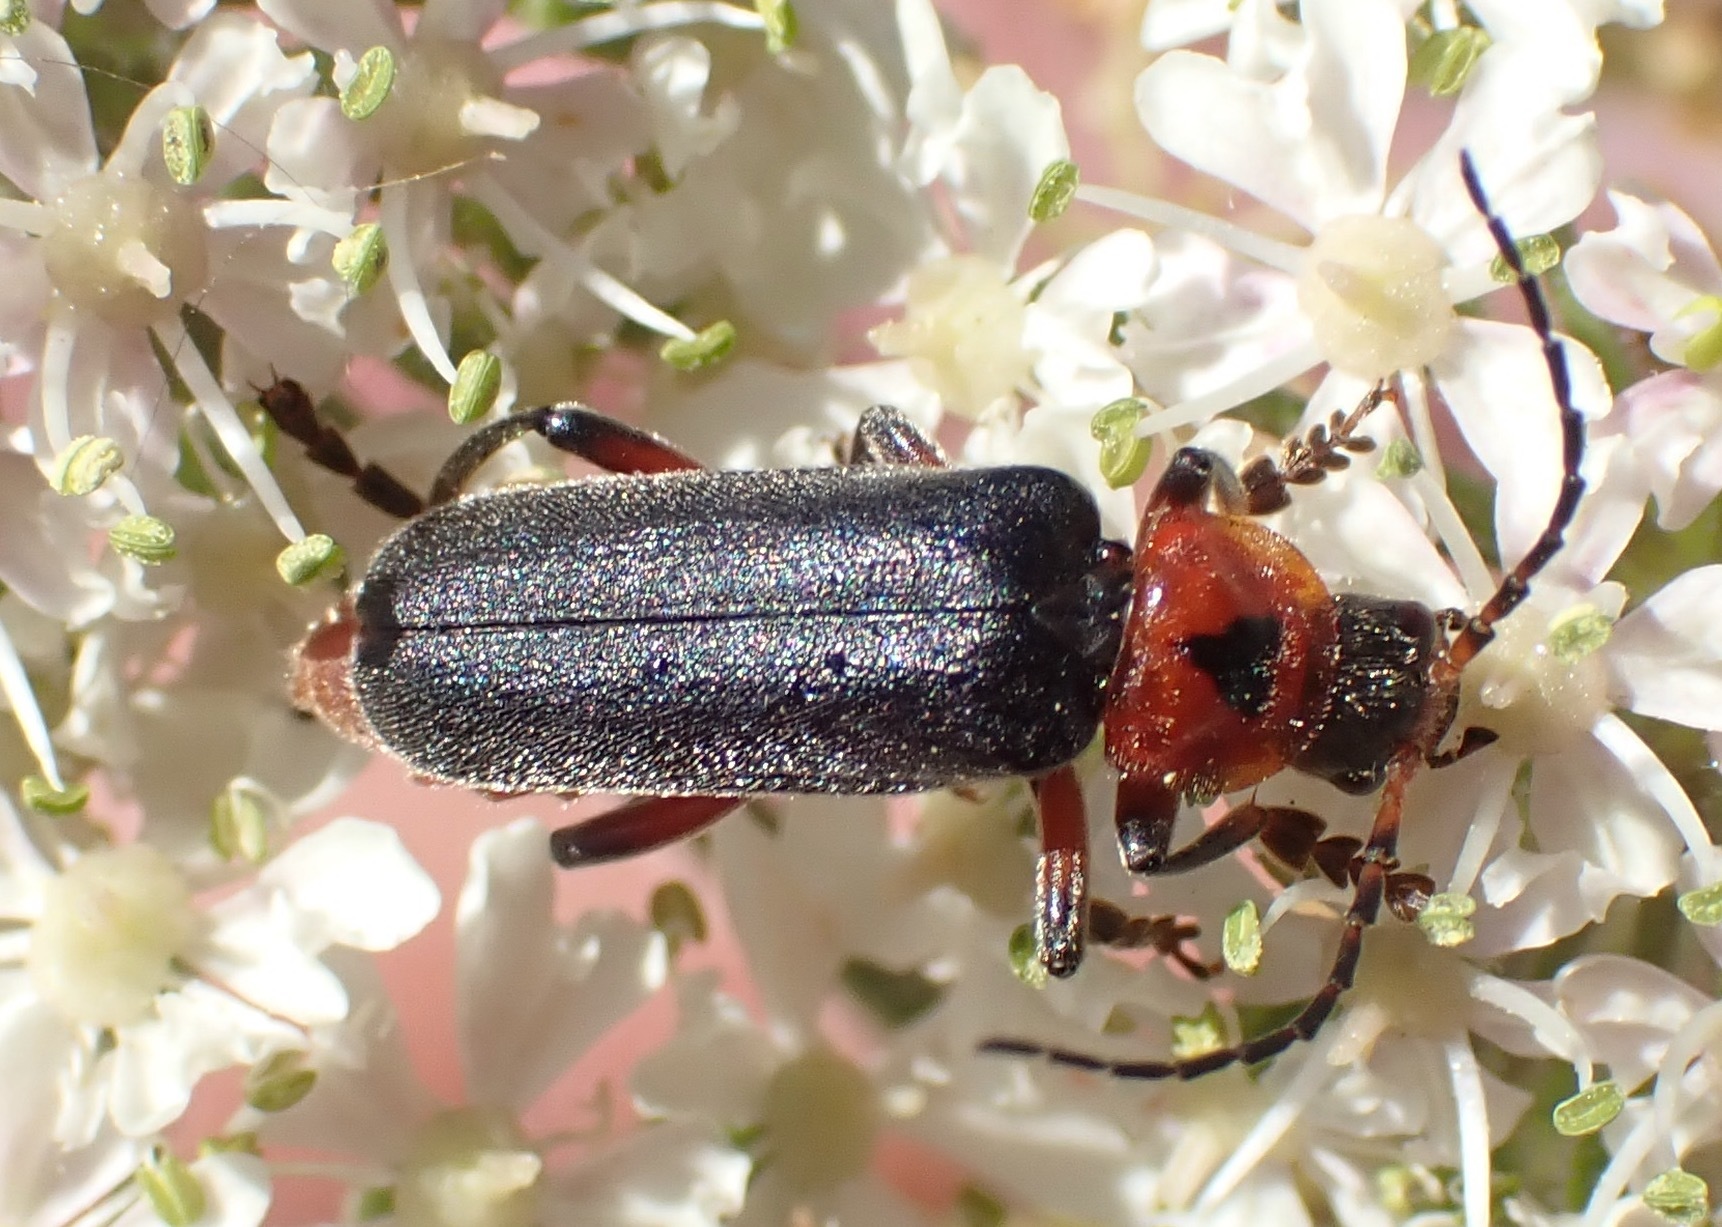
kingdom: Animalia
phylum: Arthropoda
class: Insecta
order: Coleoptera
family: Cantharidae
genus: Cantharis
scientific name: Cantharis rustica
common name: Soldier beetle
